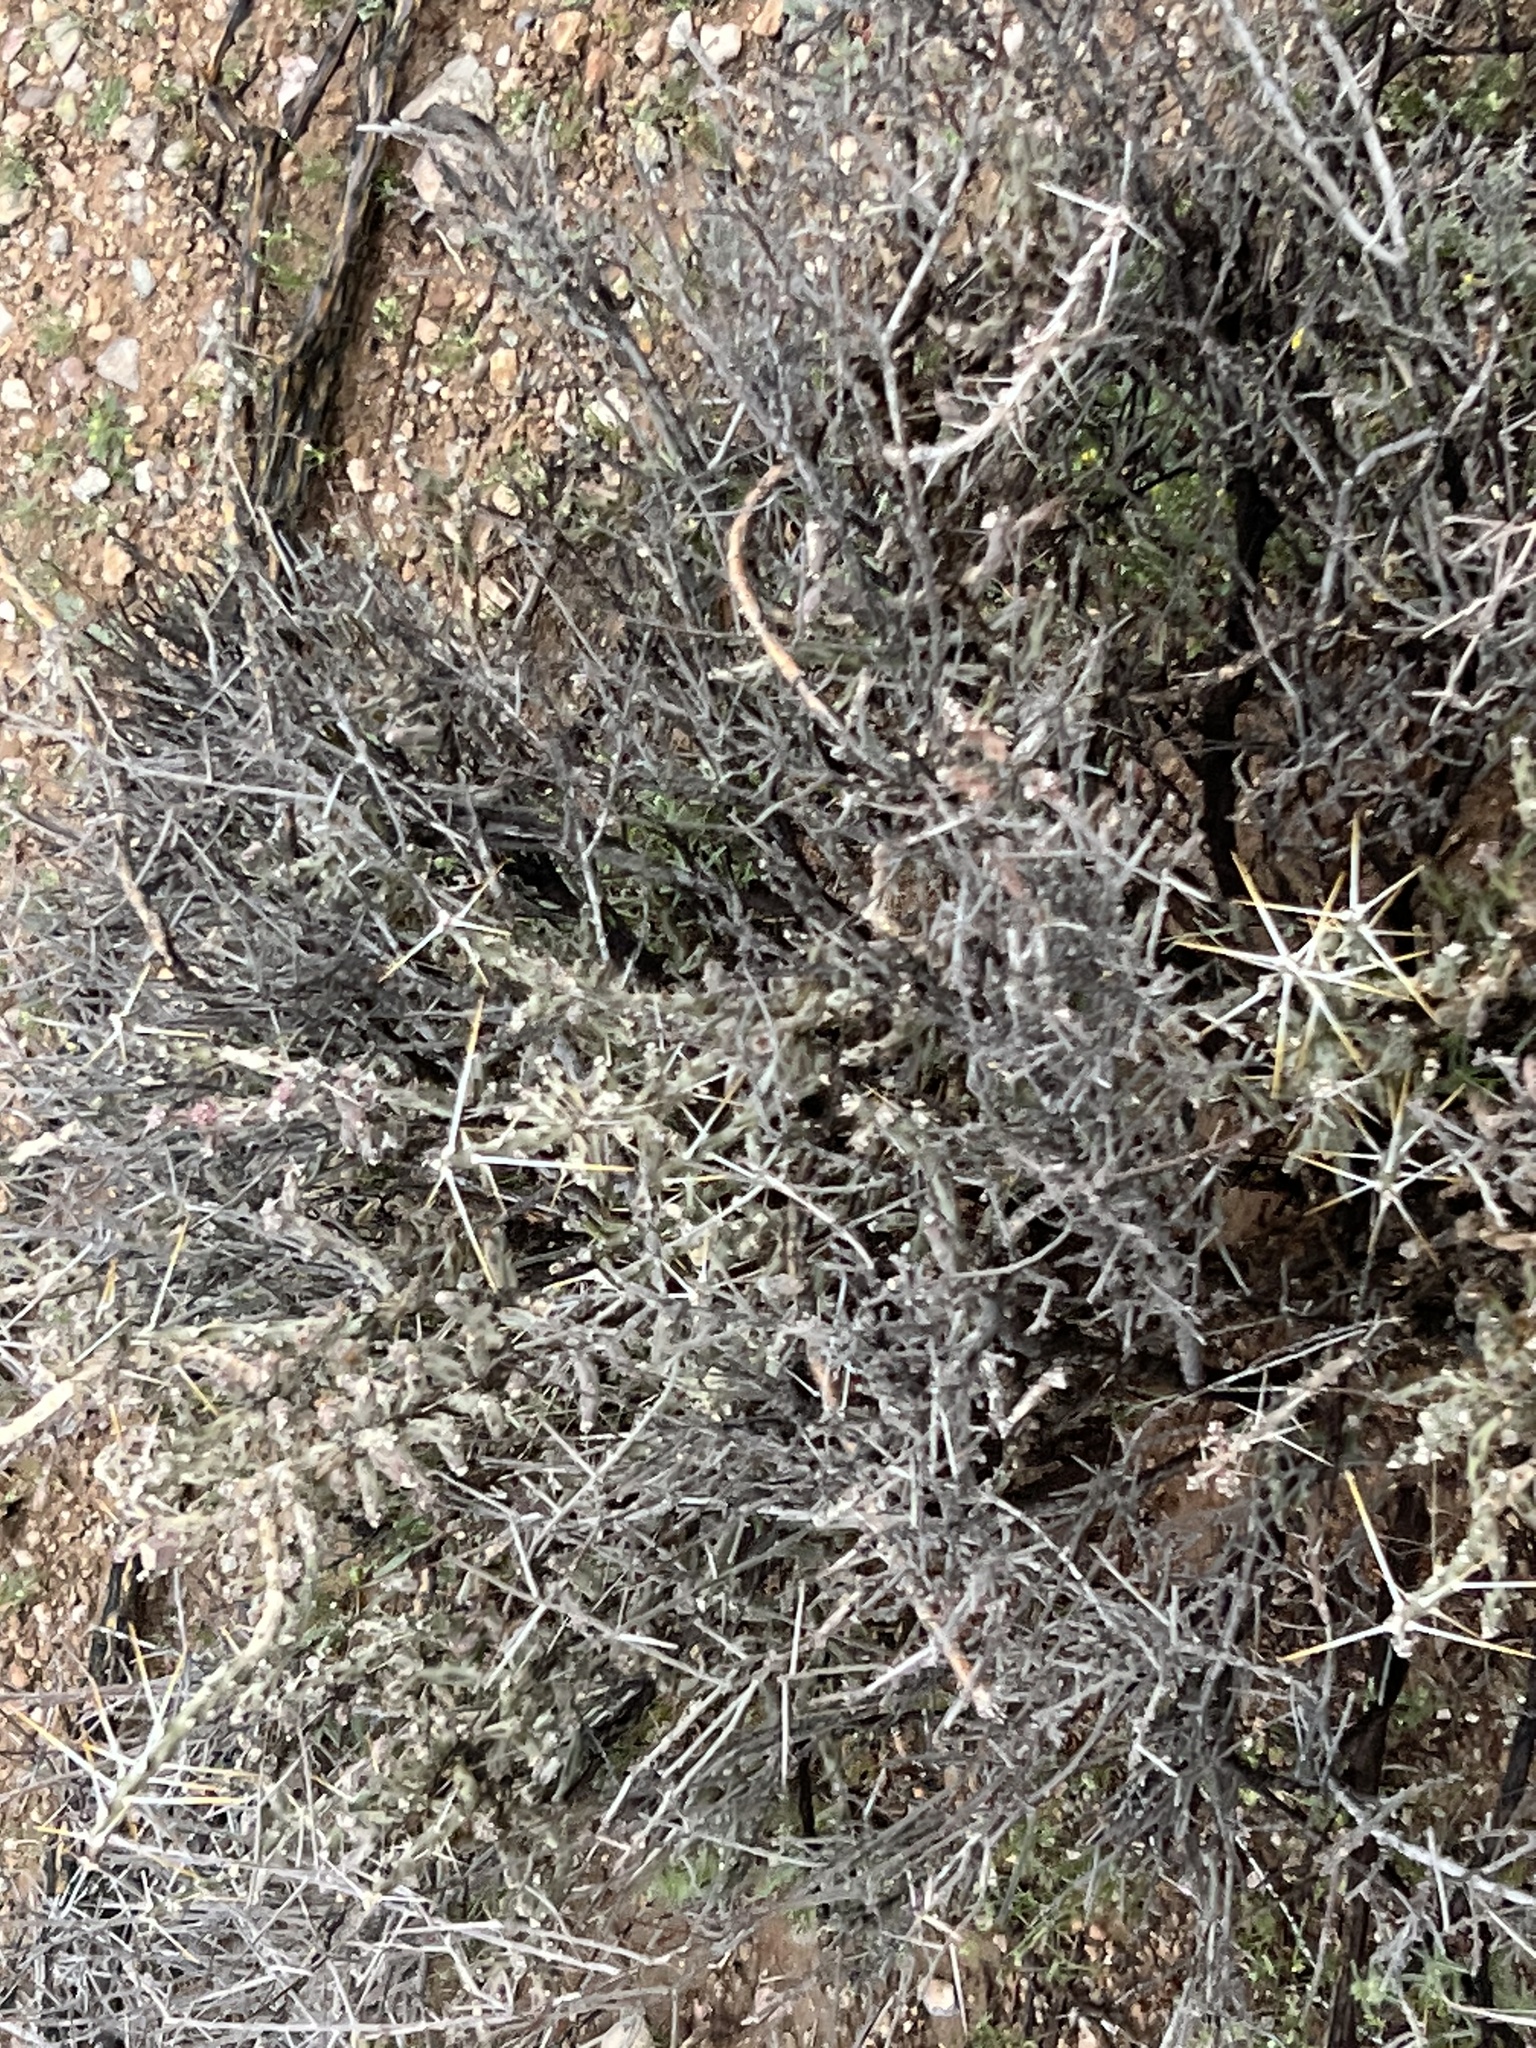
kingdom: Plantae
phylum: Tracheophyta
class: Magnoliopsida
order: Caryophyllales
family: Cactaceae
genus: Cylindropuntia
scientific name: Cylindropuntia leptocaulis
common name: Christmas cactus
